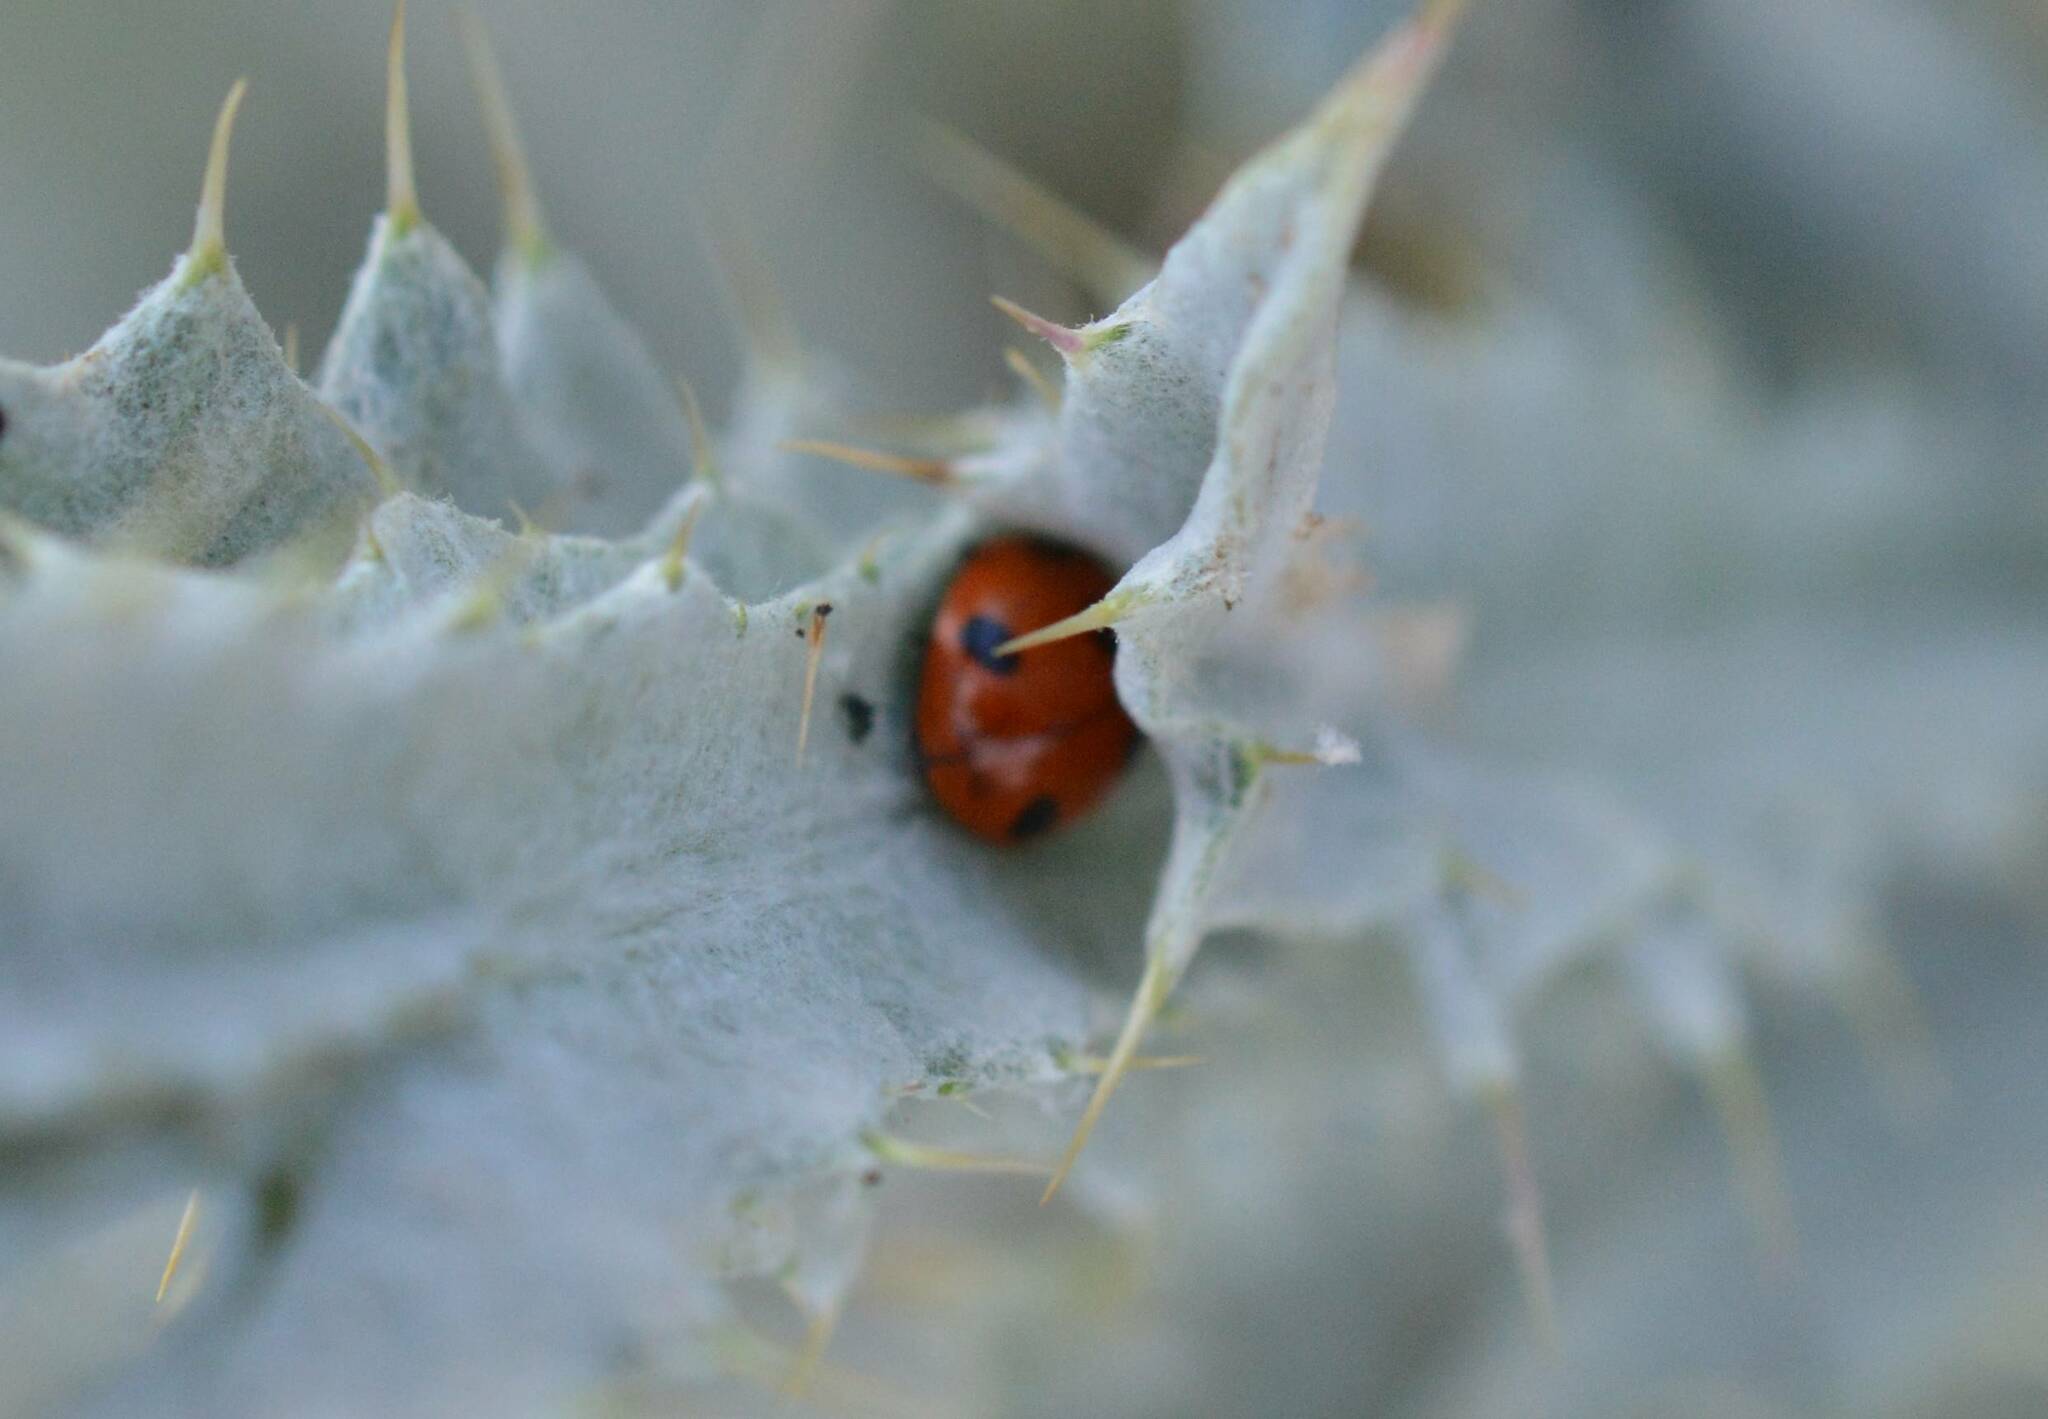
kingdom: Animalia
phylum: Arthropoda
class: Insecta
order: Coleoptera
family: Coccinellidae
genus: Coccinella
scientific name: Coccinella algerica
